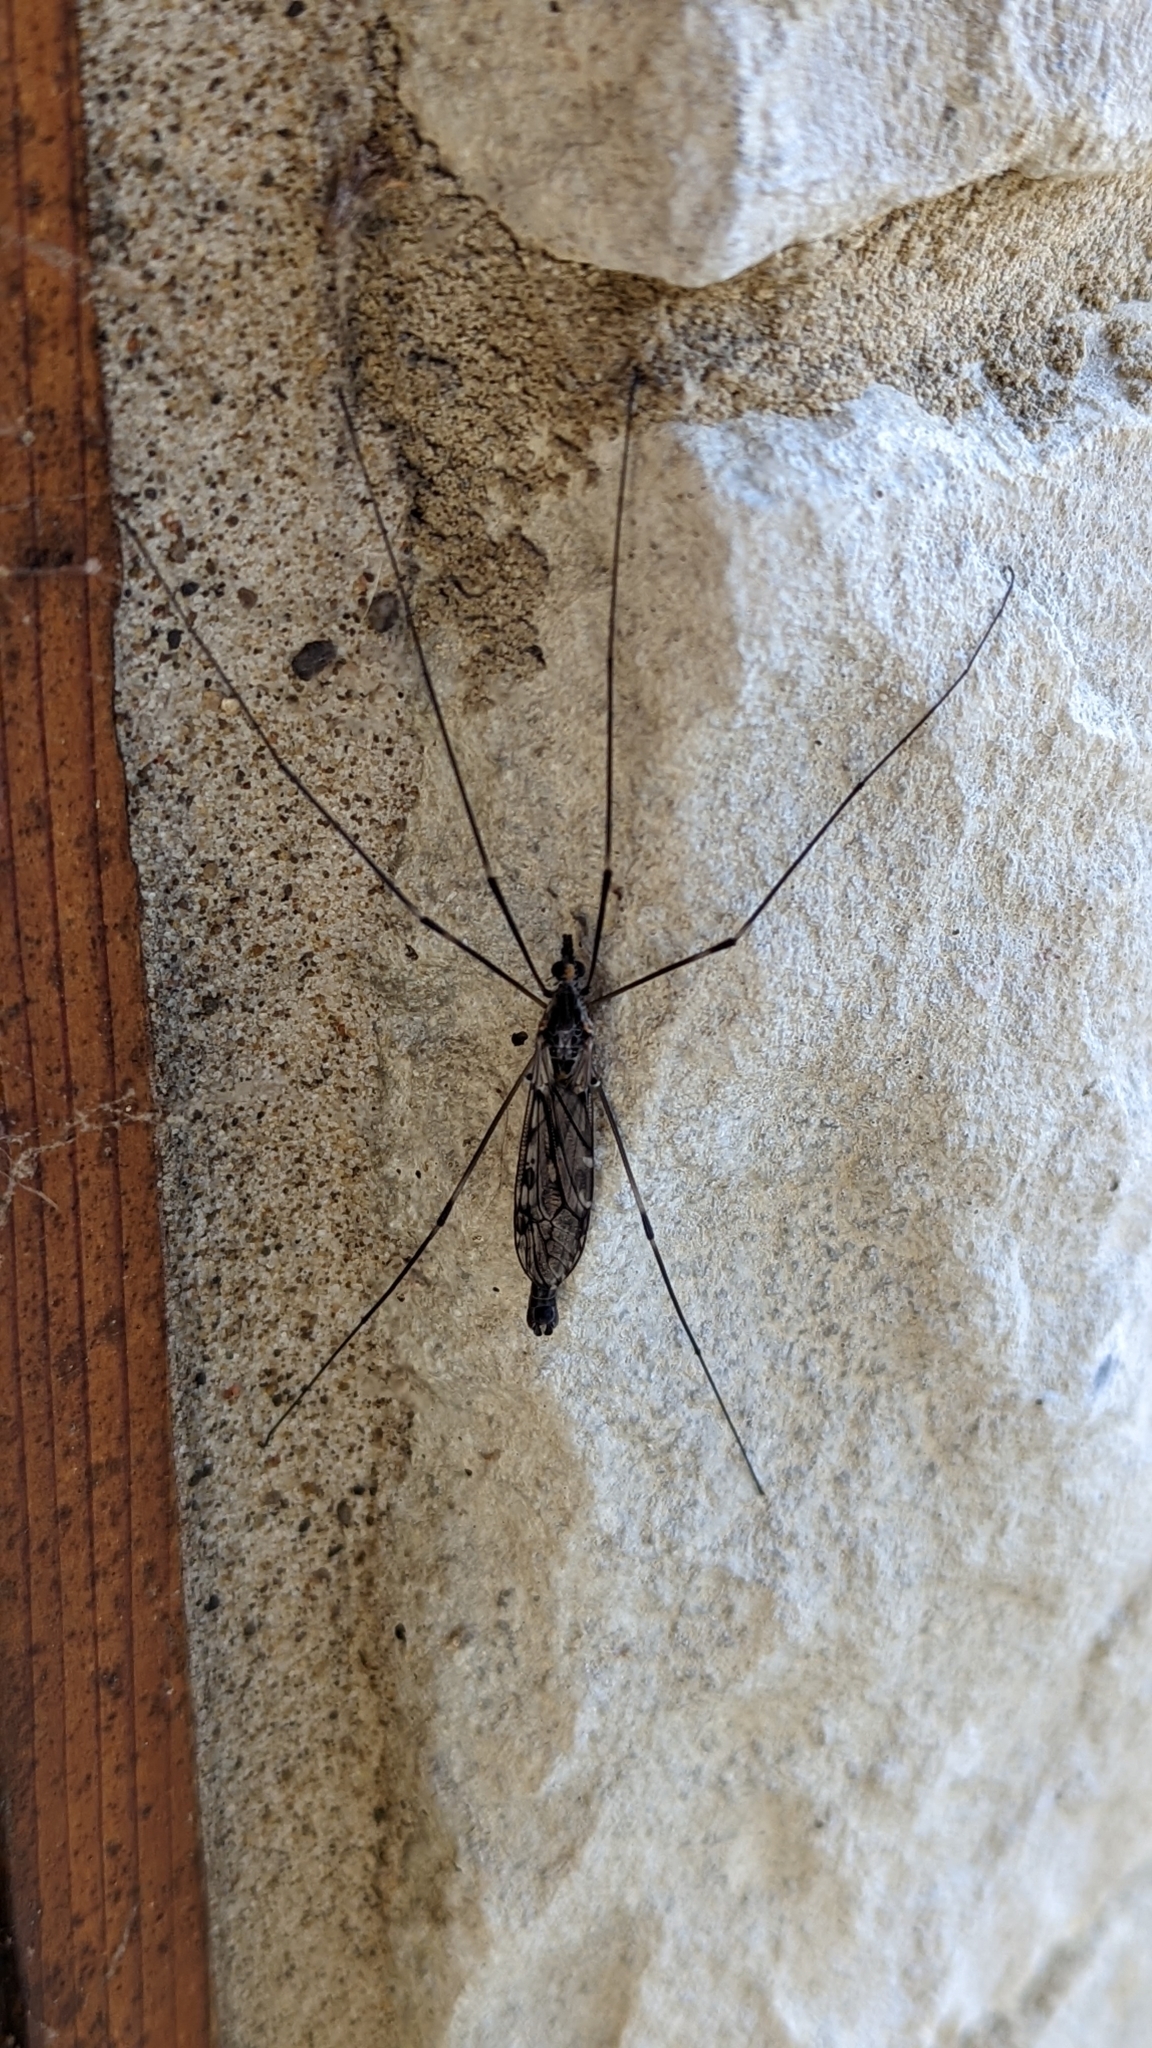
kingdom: Animalia
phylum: Arthropoda
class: Insecta
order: Diptera
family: Tipulidae
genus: Tipula
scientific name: Tipula abdominalis
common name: Giant crane fly
